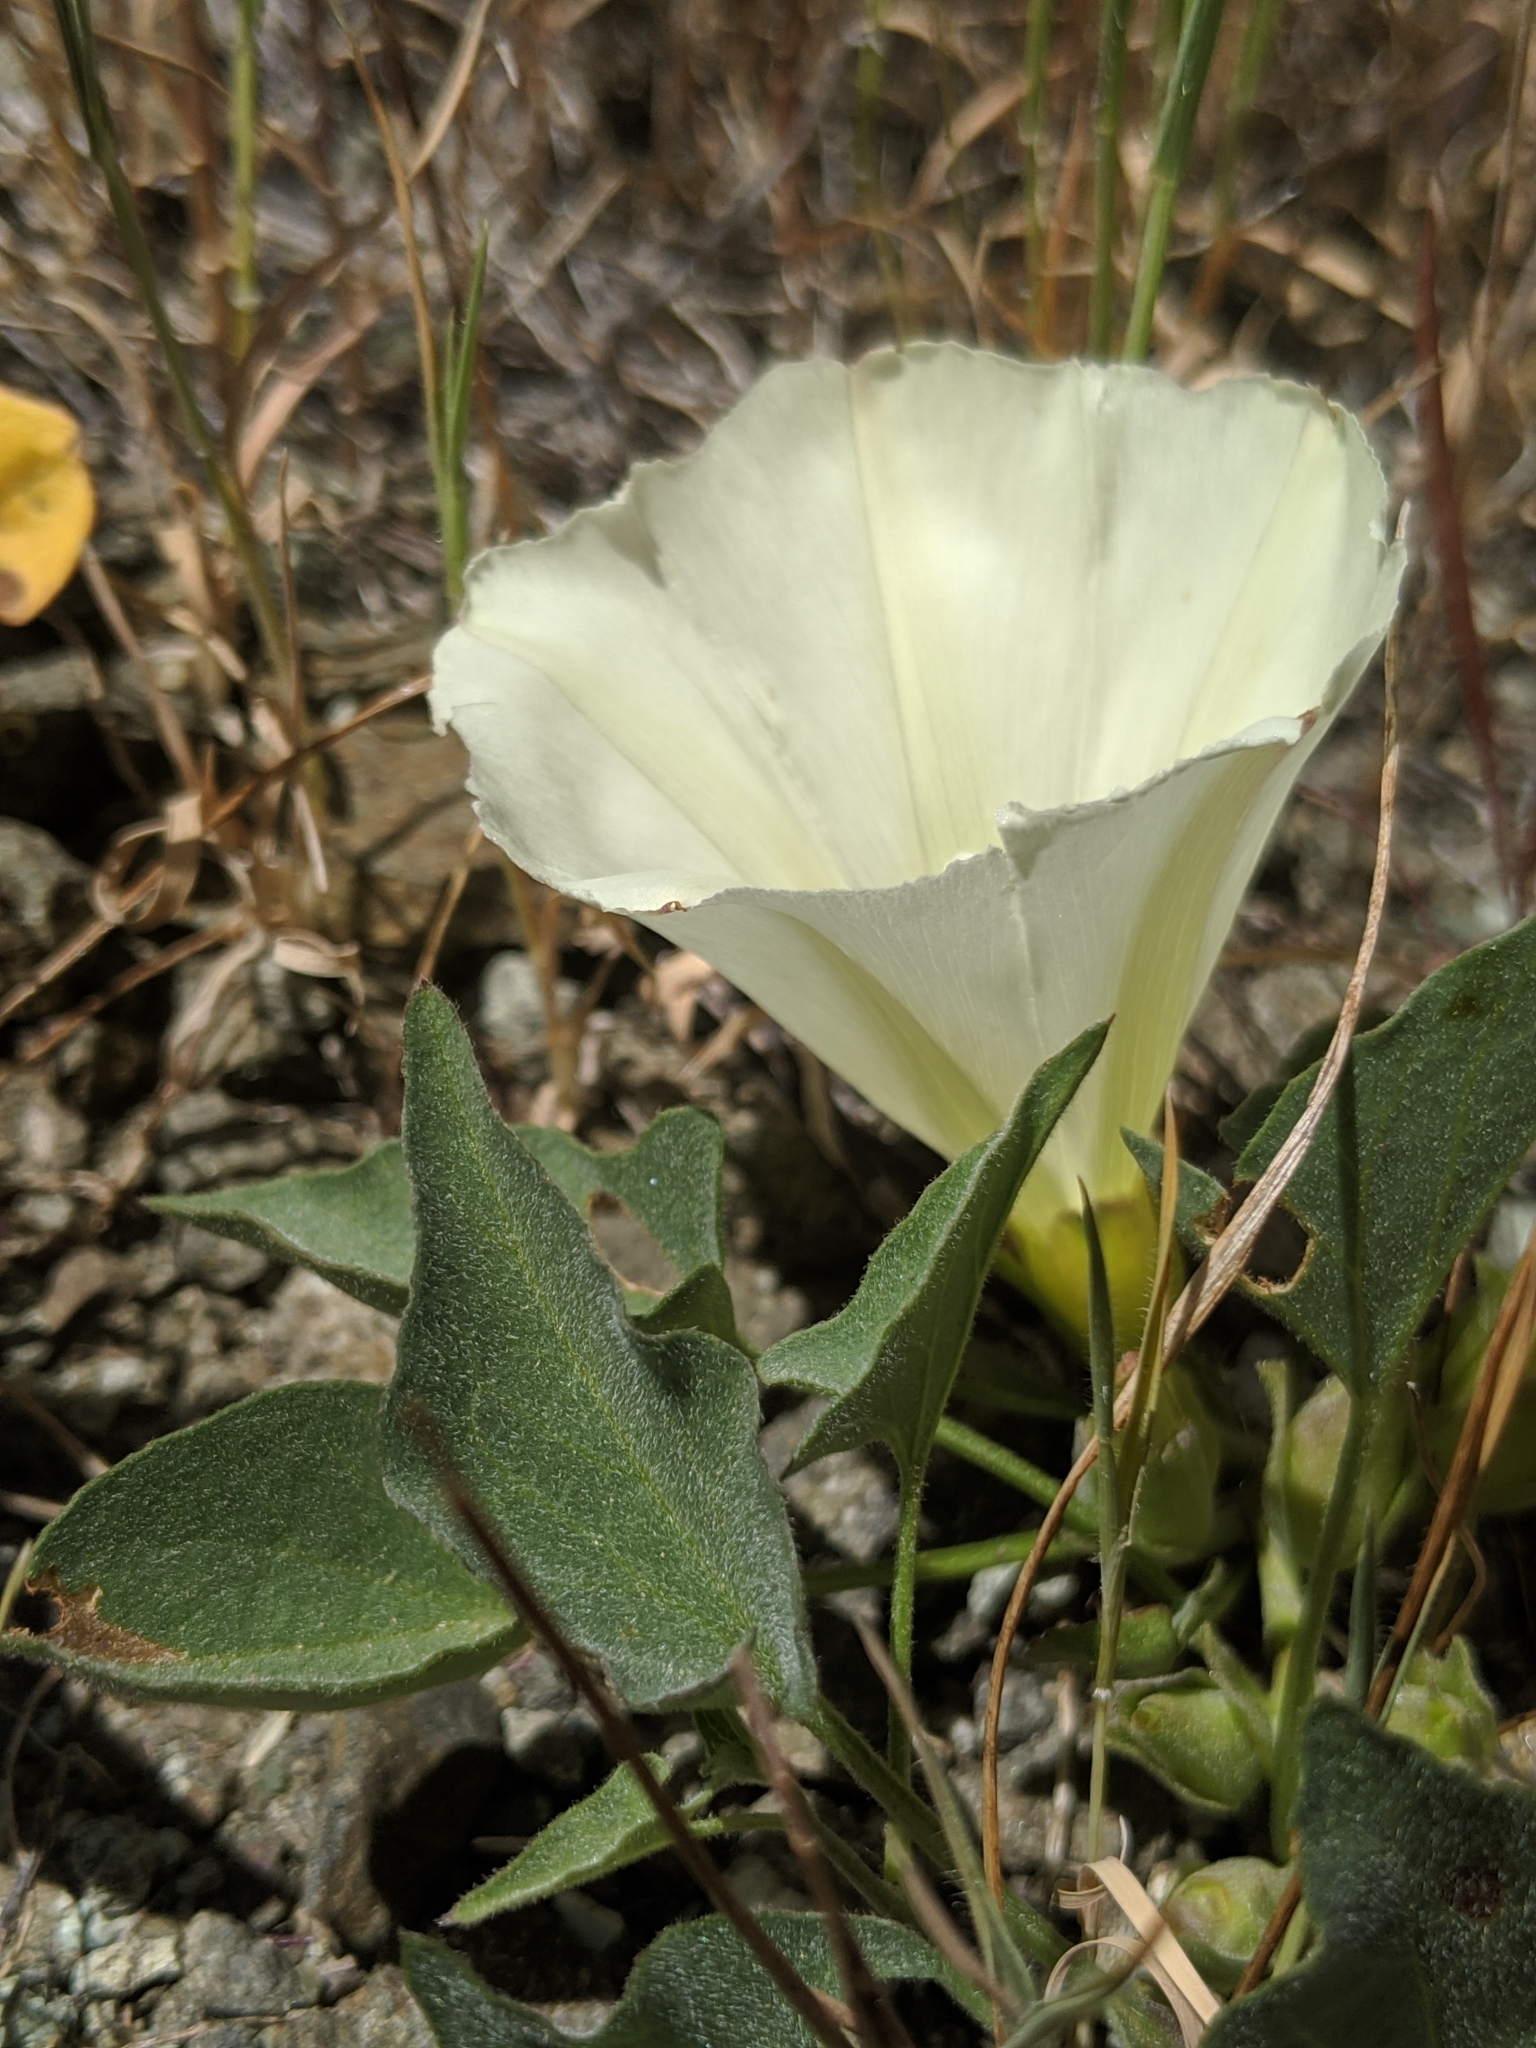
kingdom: Plantae
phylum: Tracheophyta
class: Magnoliopsida
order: Solanales
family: Convolvulaceae
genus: Calystegia
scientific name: Calystegia subacaulis
